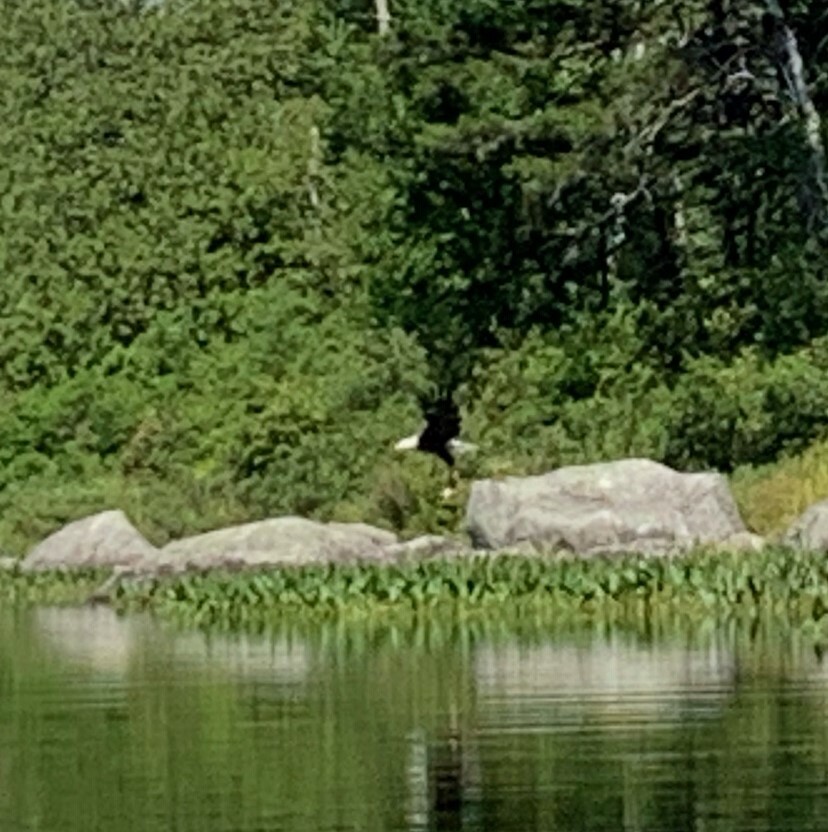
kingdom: Animalia
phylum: Chordata
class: Aves
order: Accipitriformes
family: Accipitridae
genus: Haliaeetus
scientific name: Haliaeetus leucocephalus
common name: Bald eagle
